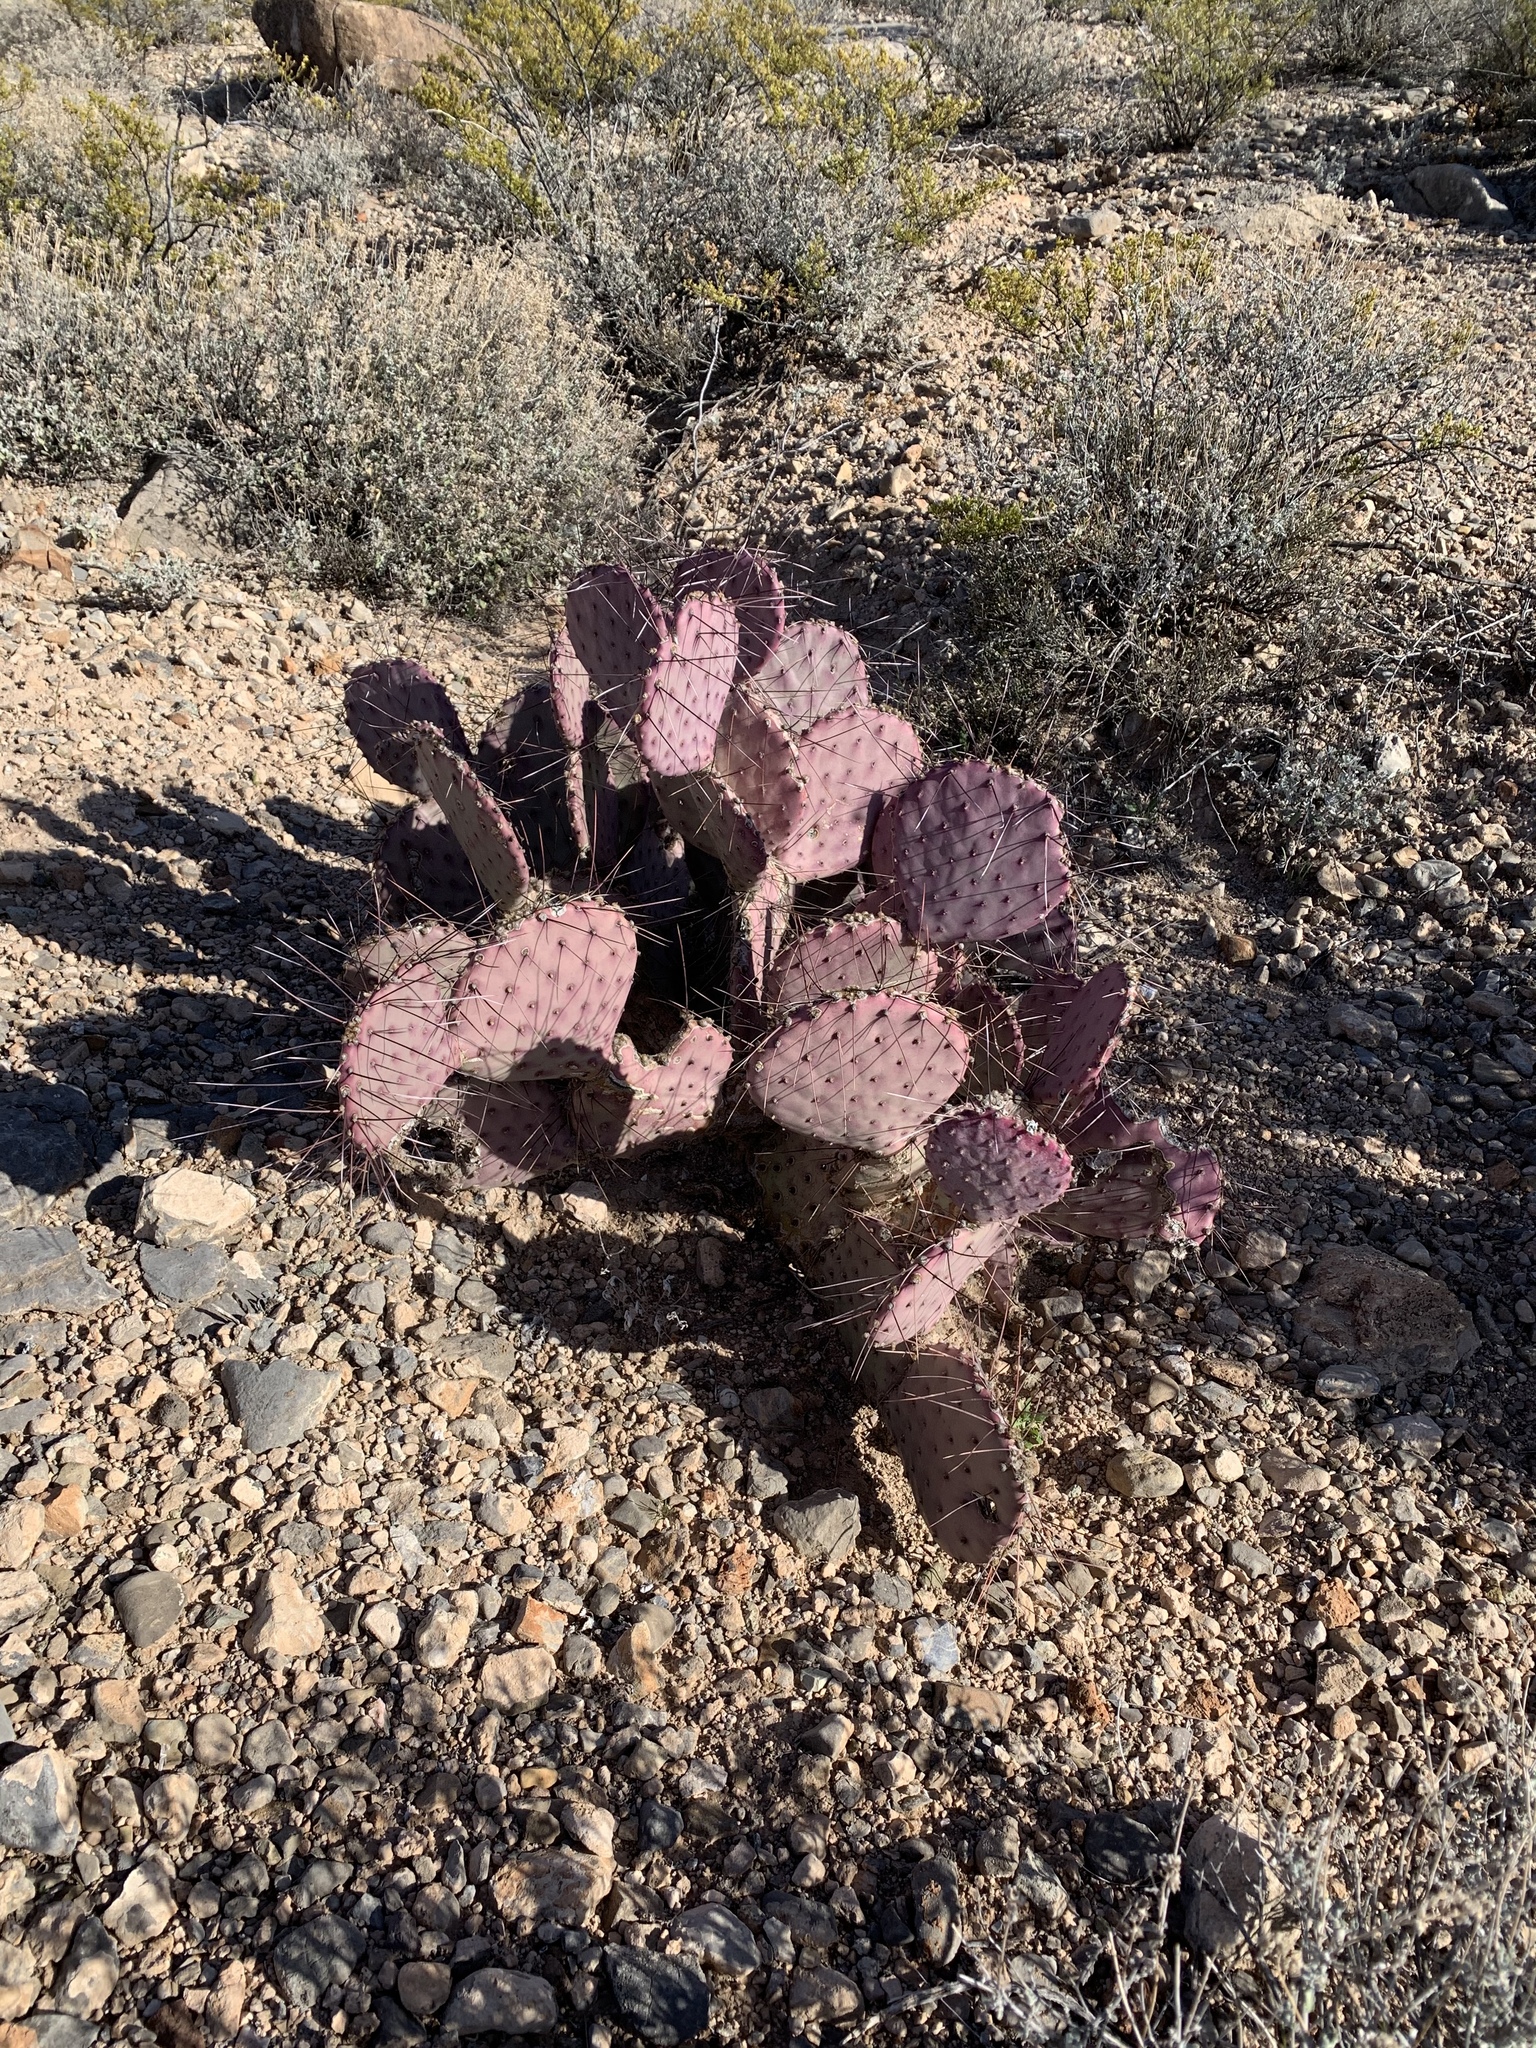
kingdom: Plantae
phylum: Tracheophyta
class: Magnoliopsida
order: Caryophyllales
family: Cactaceae
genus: Opuntia
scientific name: Opuntia macrocentra
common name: Purple prickly-pear
